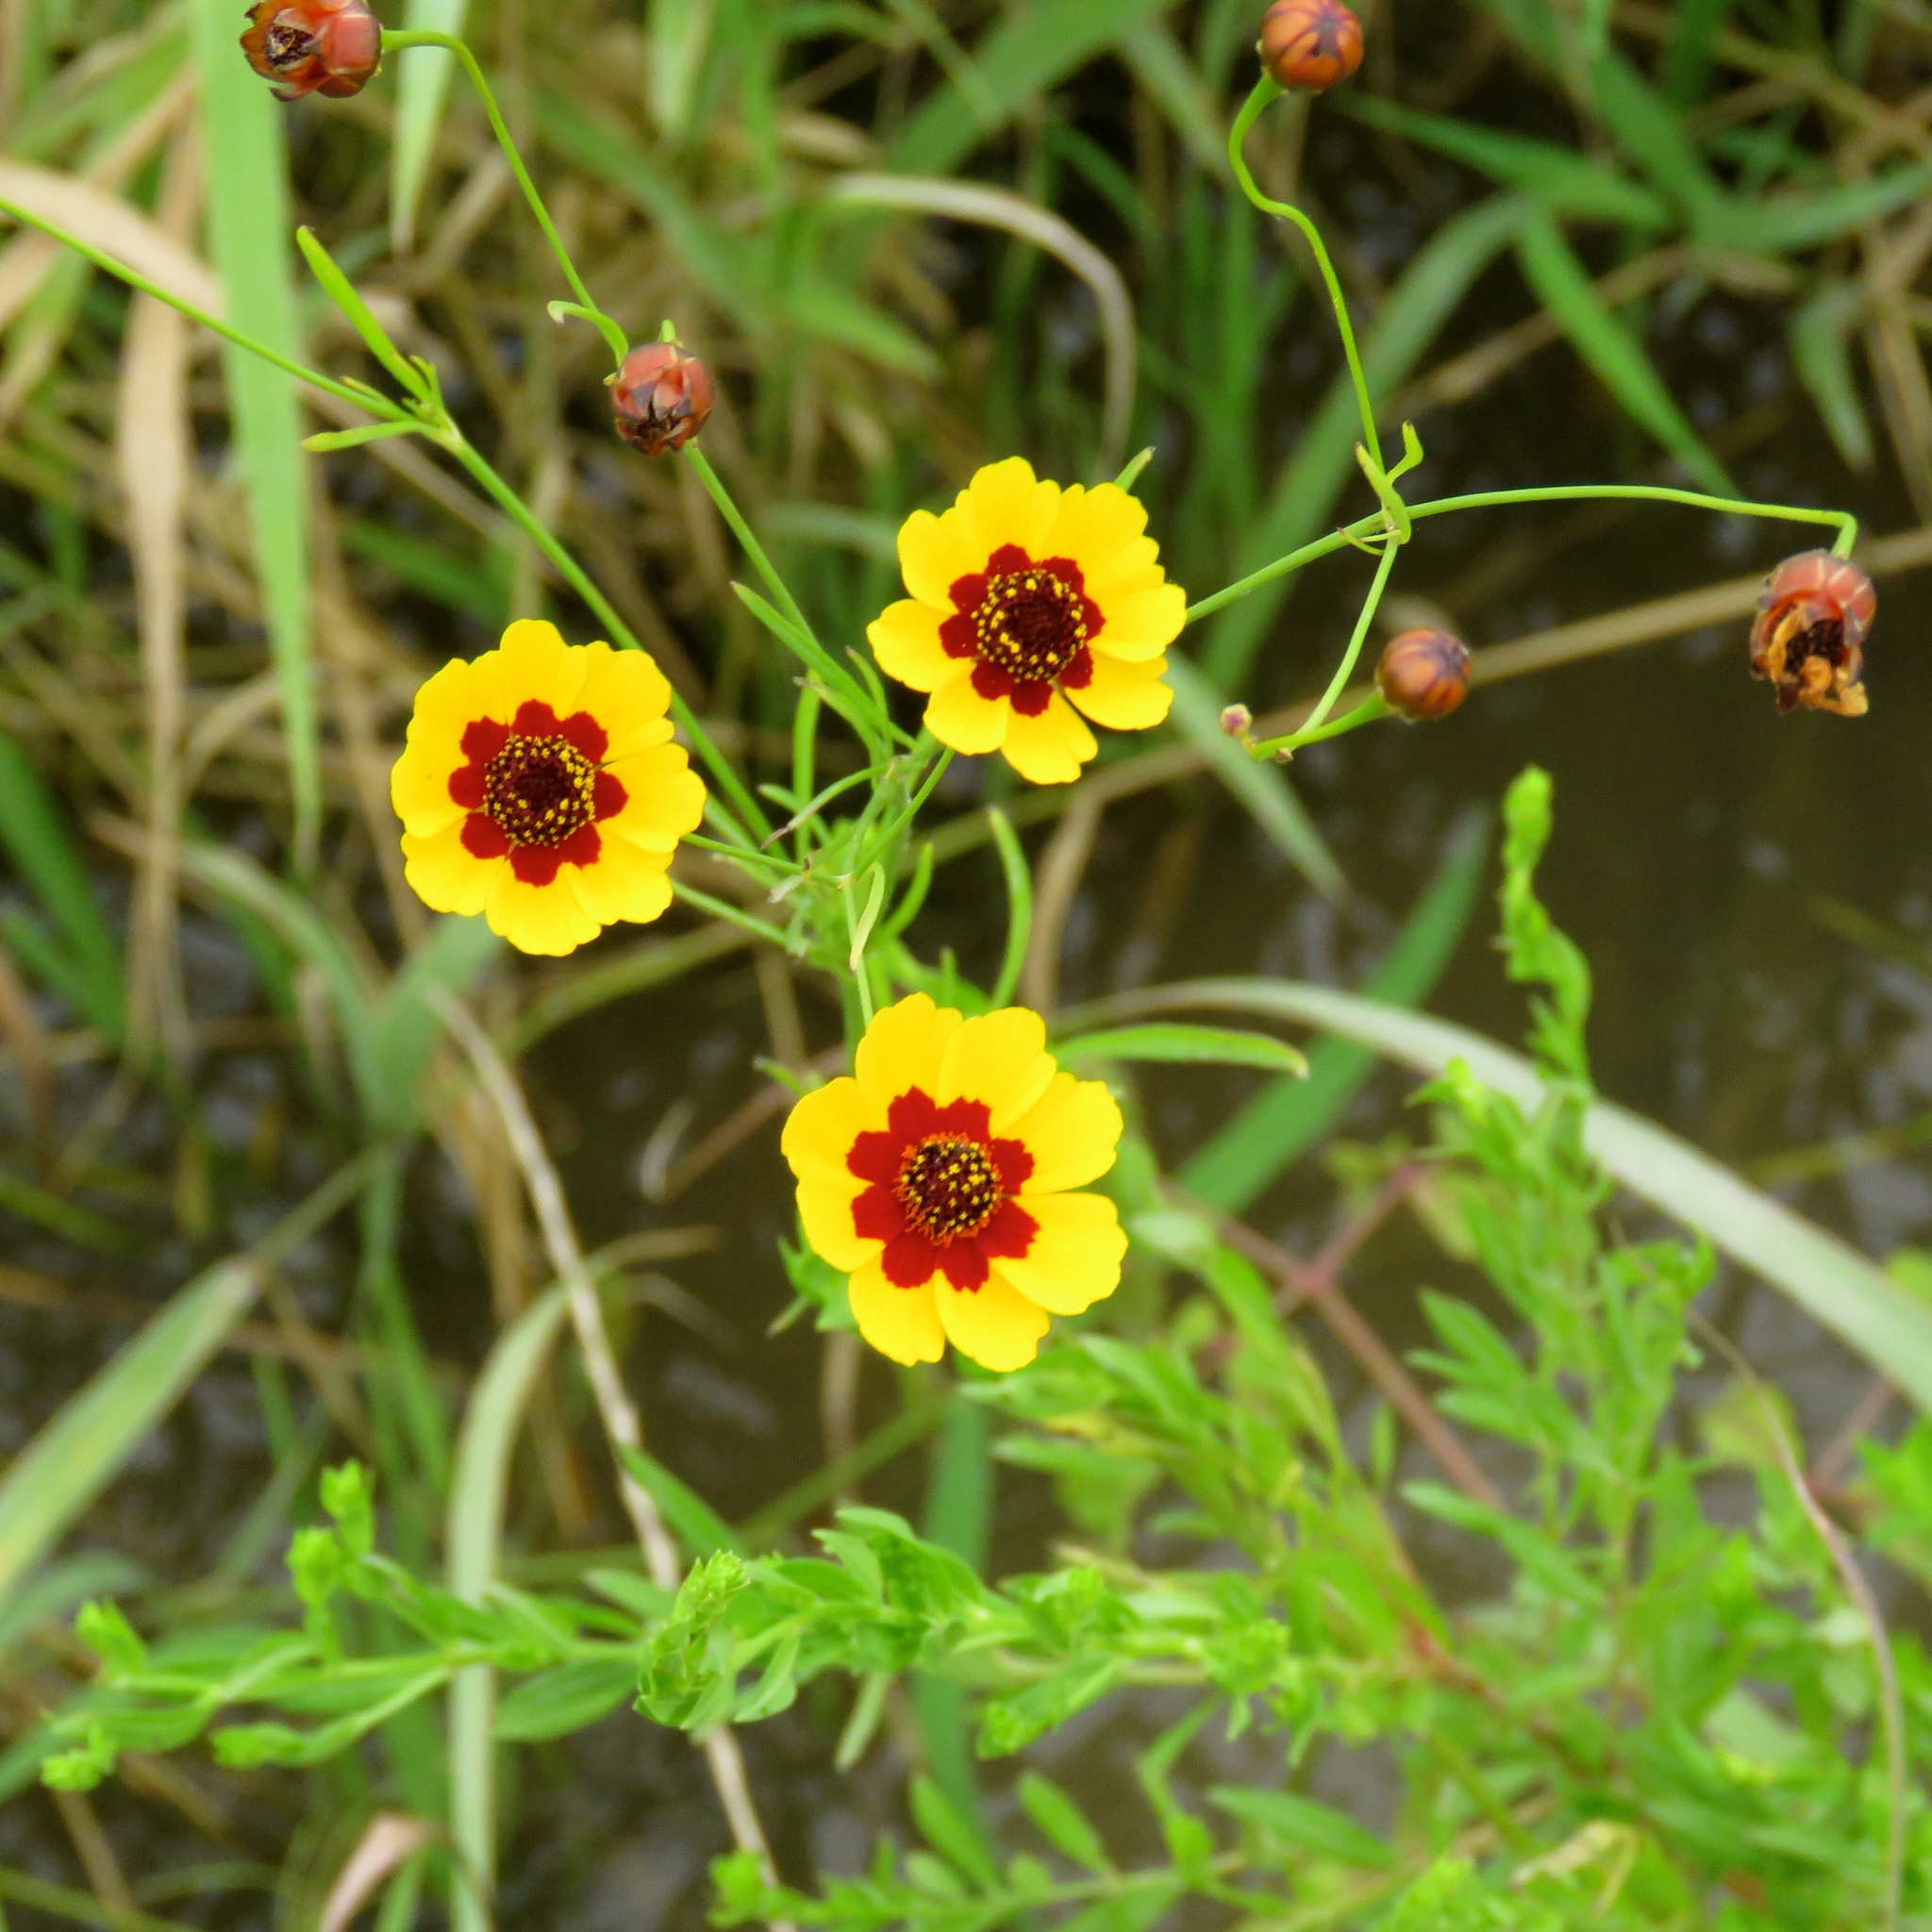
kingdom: Plantae
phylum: Tracheophyta
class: Magnoliopsida
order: Asterales
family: Asteraceae
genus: Coreopsis
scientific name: Coreopsis tinctoria
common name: Garden tickseed
